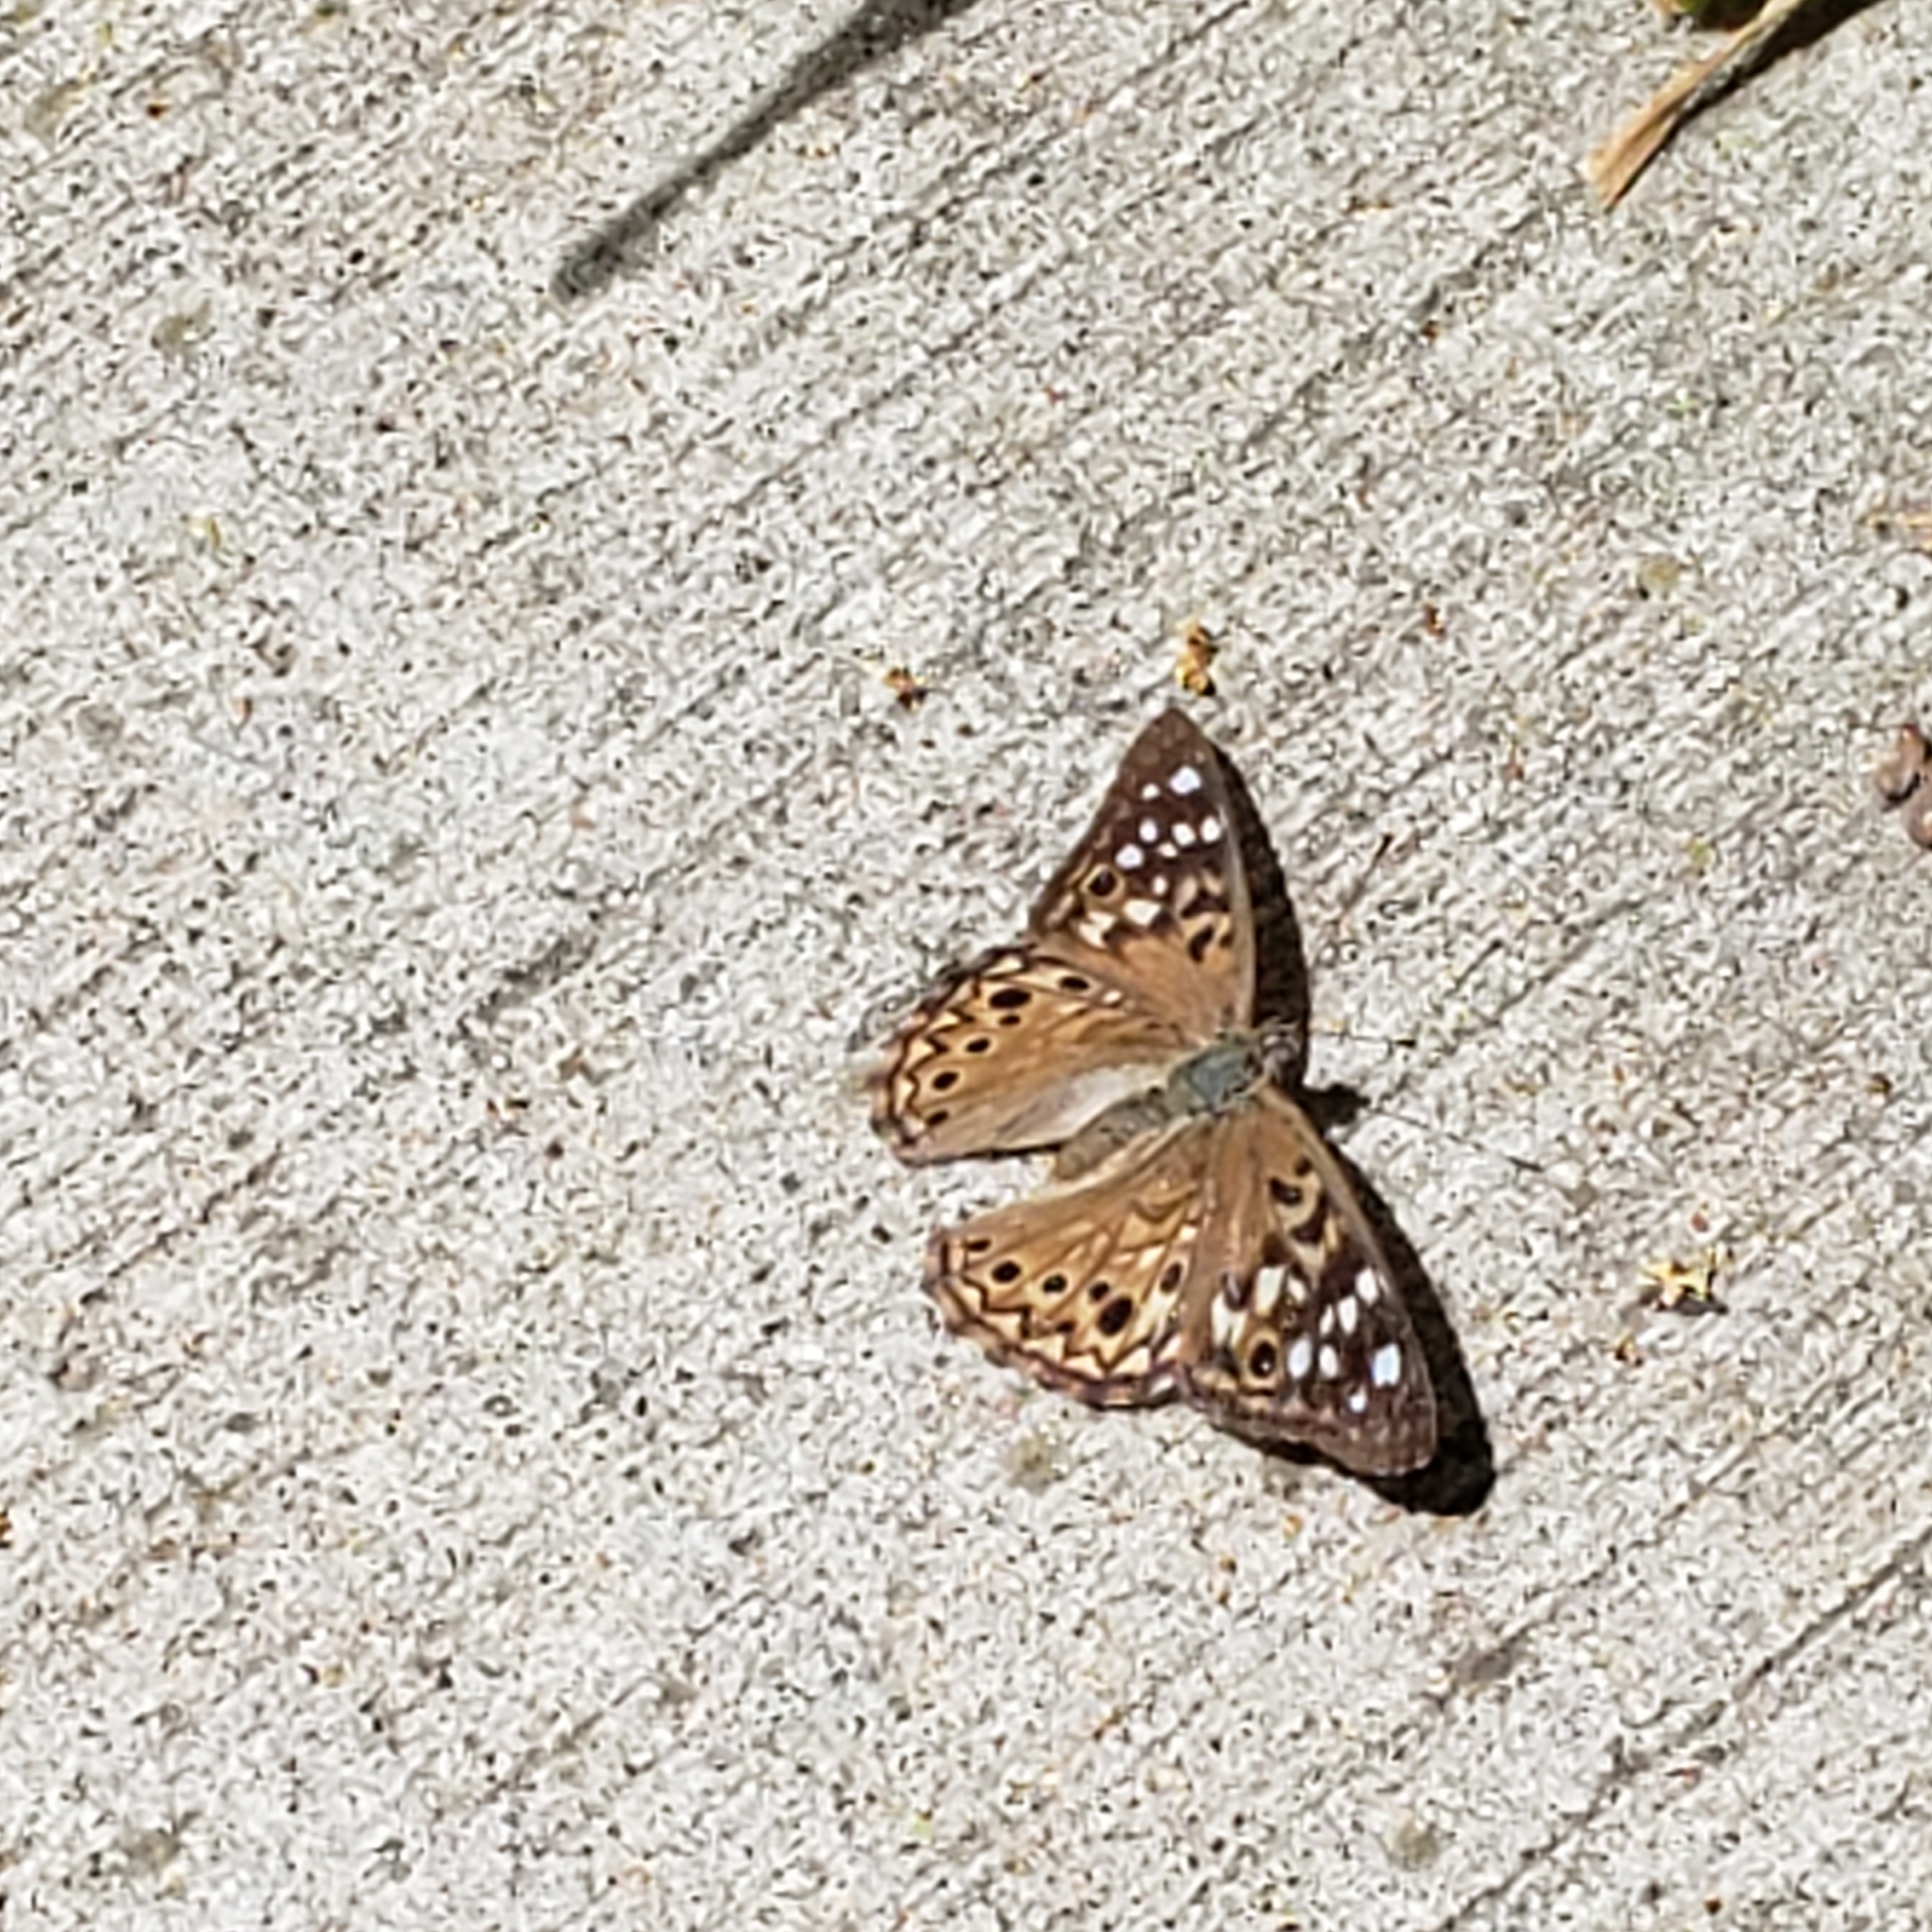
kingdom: Animalia
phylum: Arthropoda
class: Insecta
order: Lepidoptera
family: Nymphalidae
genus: Asterocampa
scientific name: Asterocampa celtis
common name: Hackberry emperor
